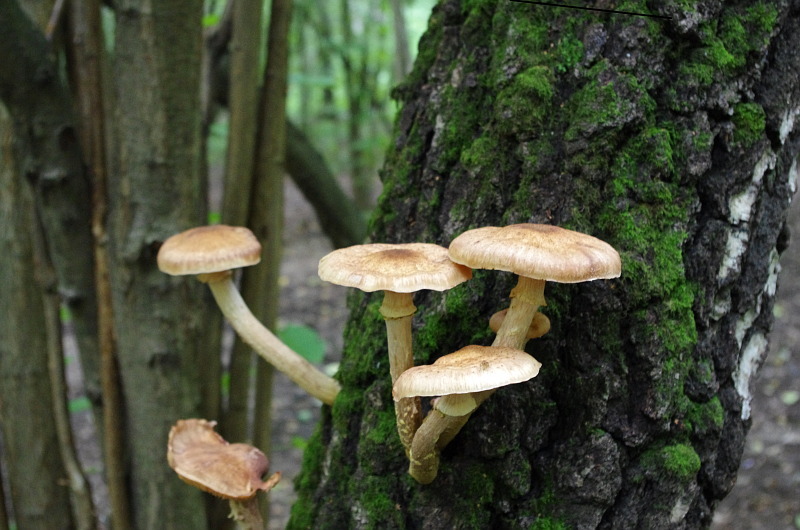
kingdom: Fungi
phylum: Basidiomycota
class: Agaricomycetes
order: Agaricales
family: Physalacriaceae
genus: Armillaria
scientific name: Armillaria mellea
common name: Honey fungus
